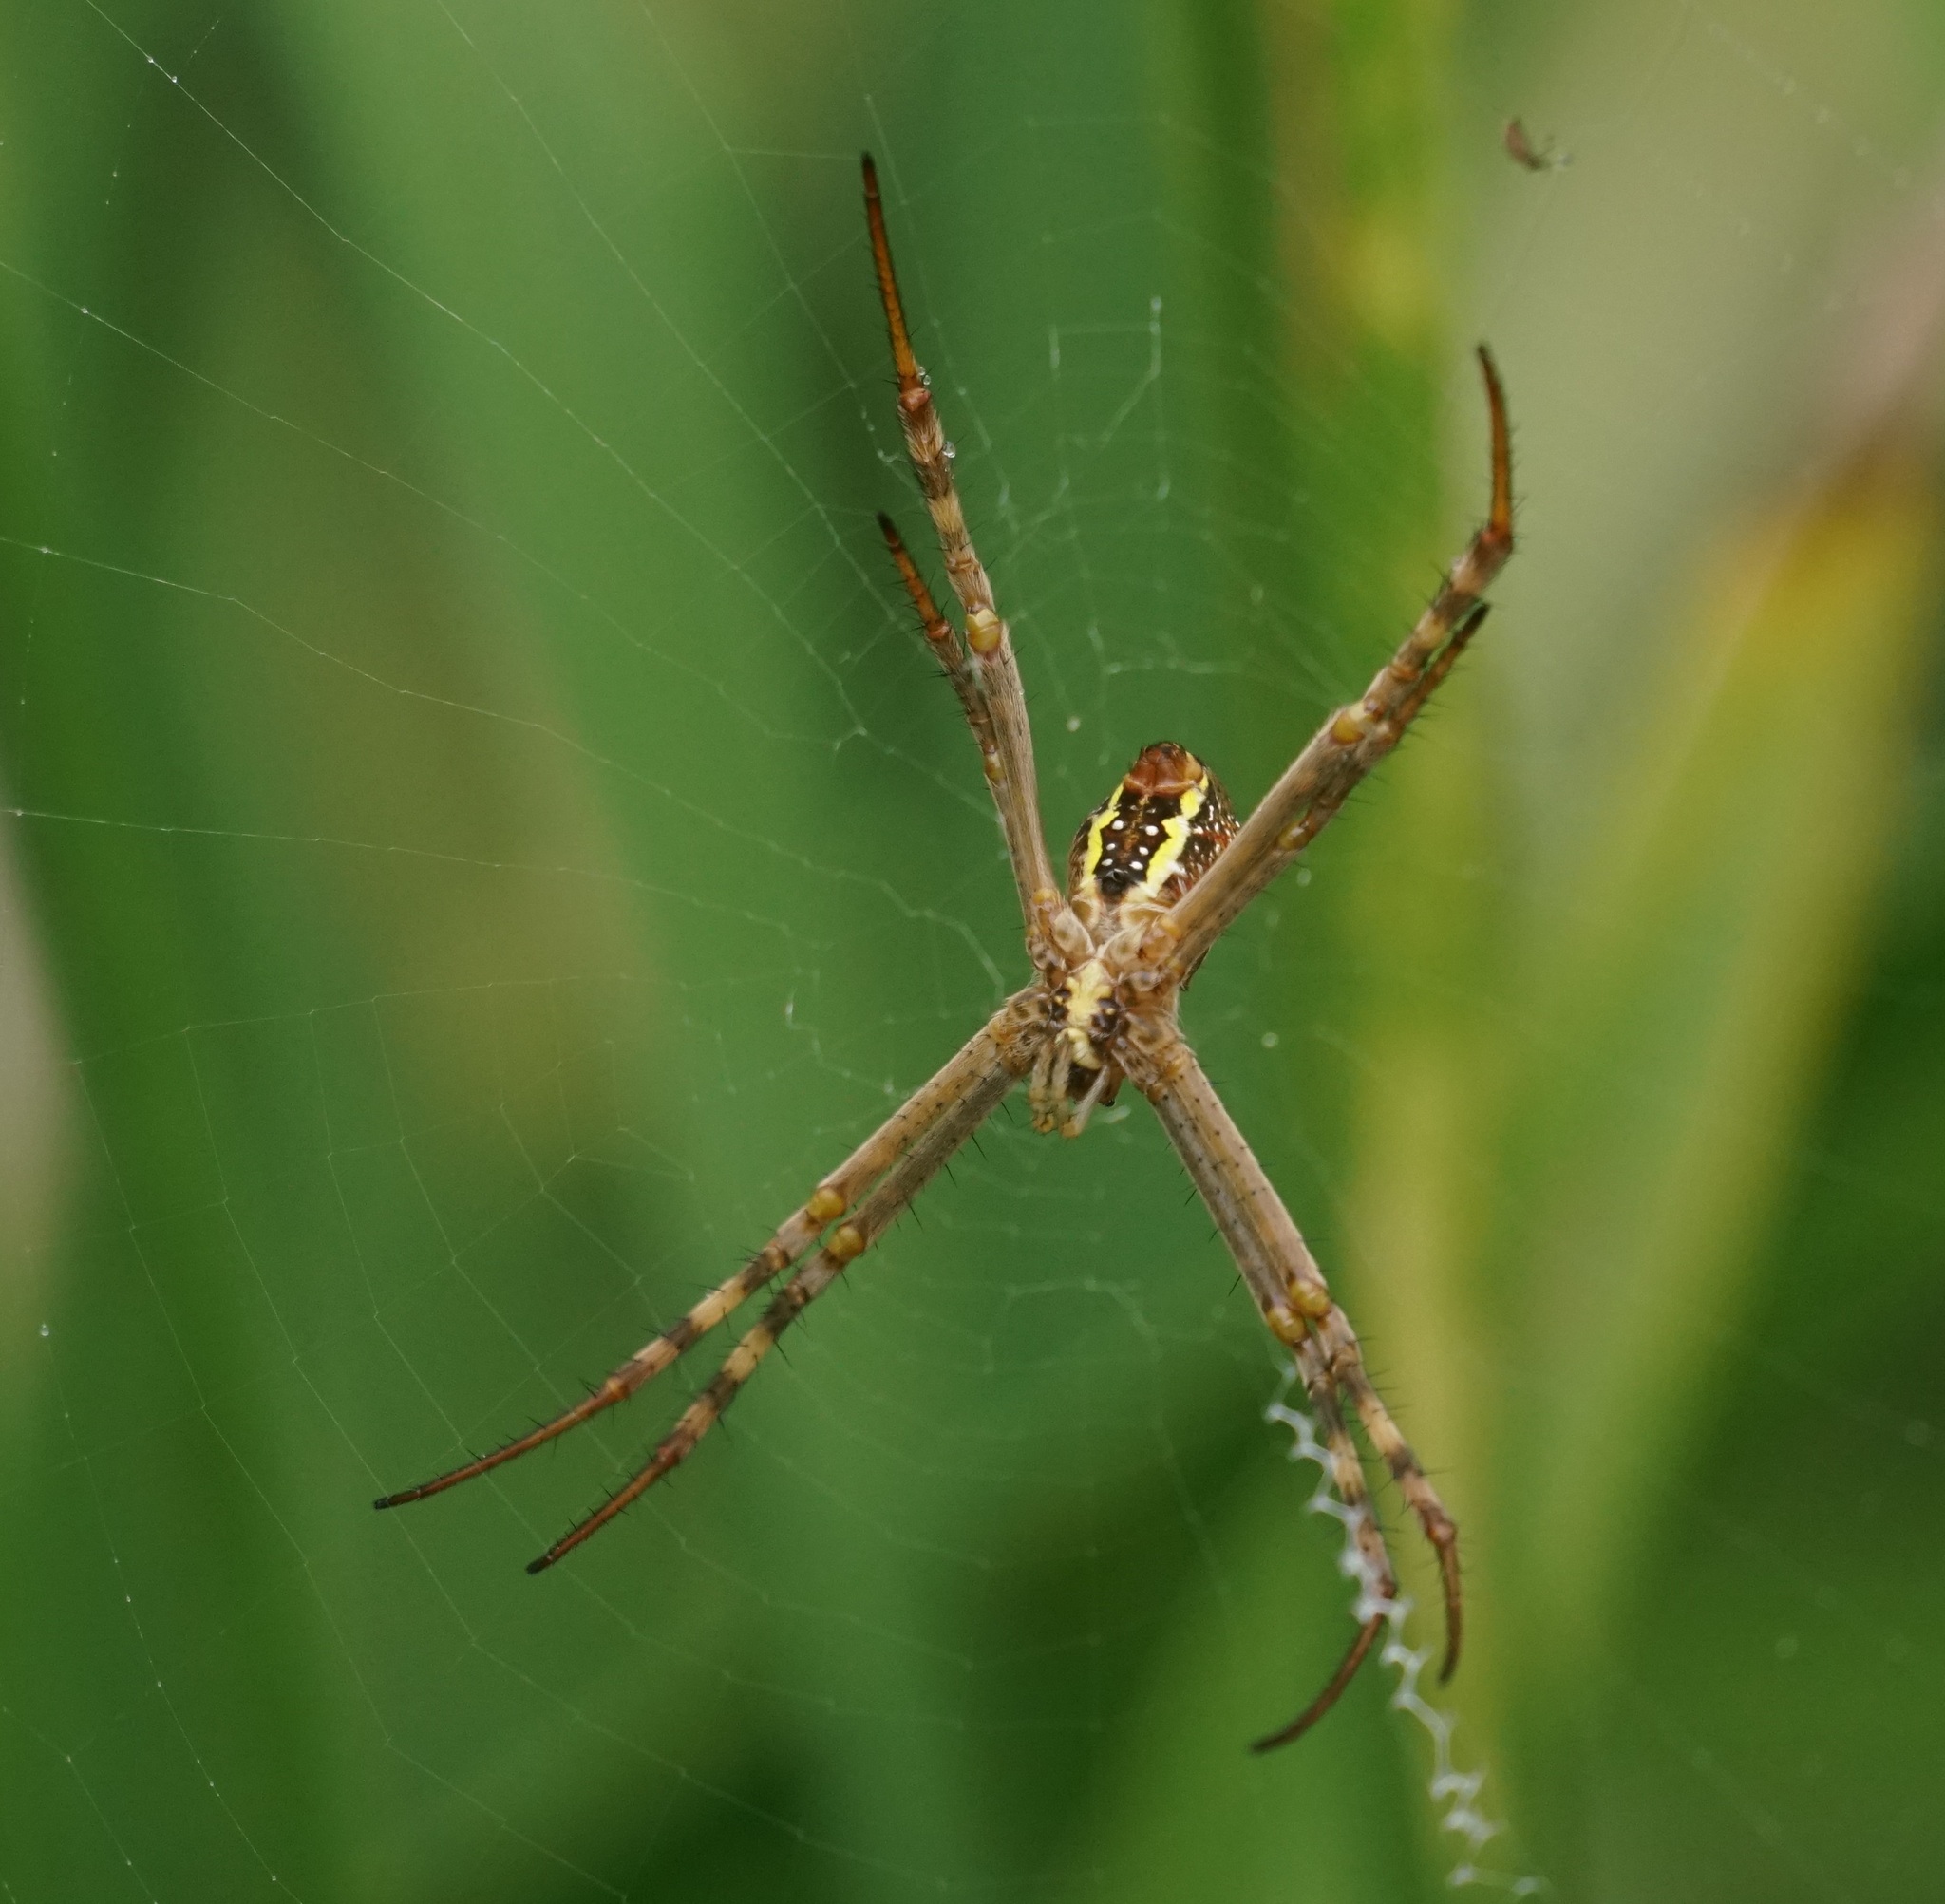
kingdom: Animalia
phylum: Arthropoda
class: Arachnida
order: Araneae
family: Araneidae
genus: Argiope
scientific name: Argiope keyserlingi
